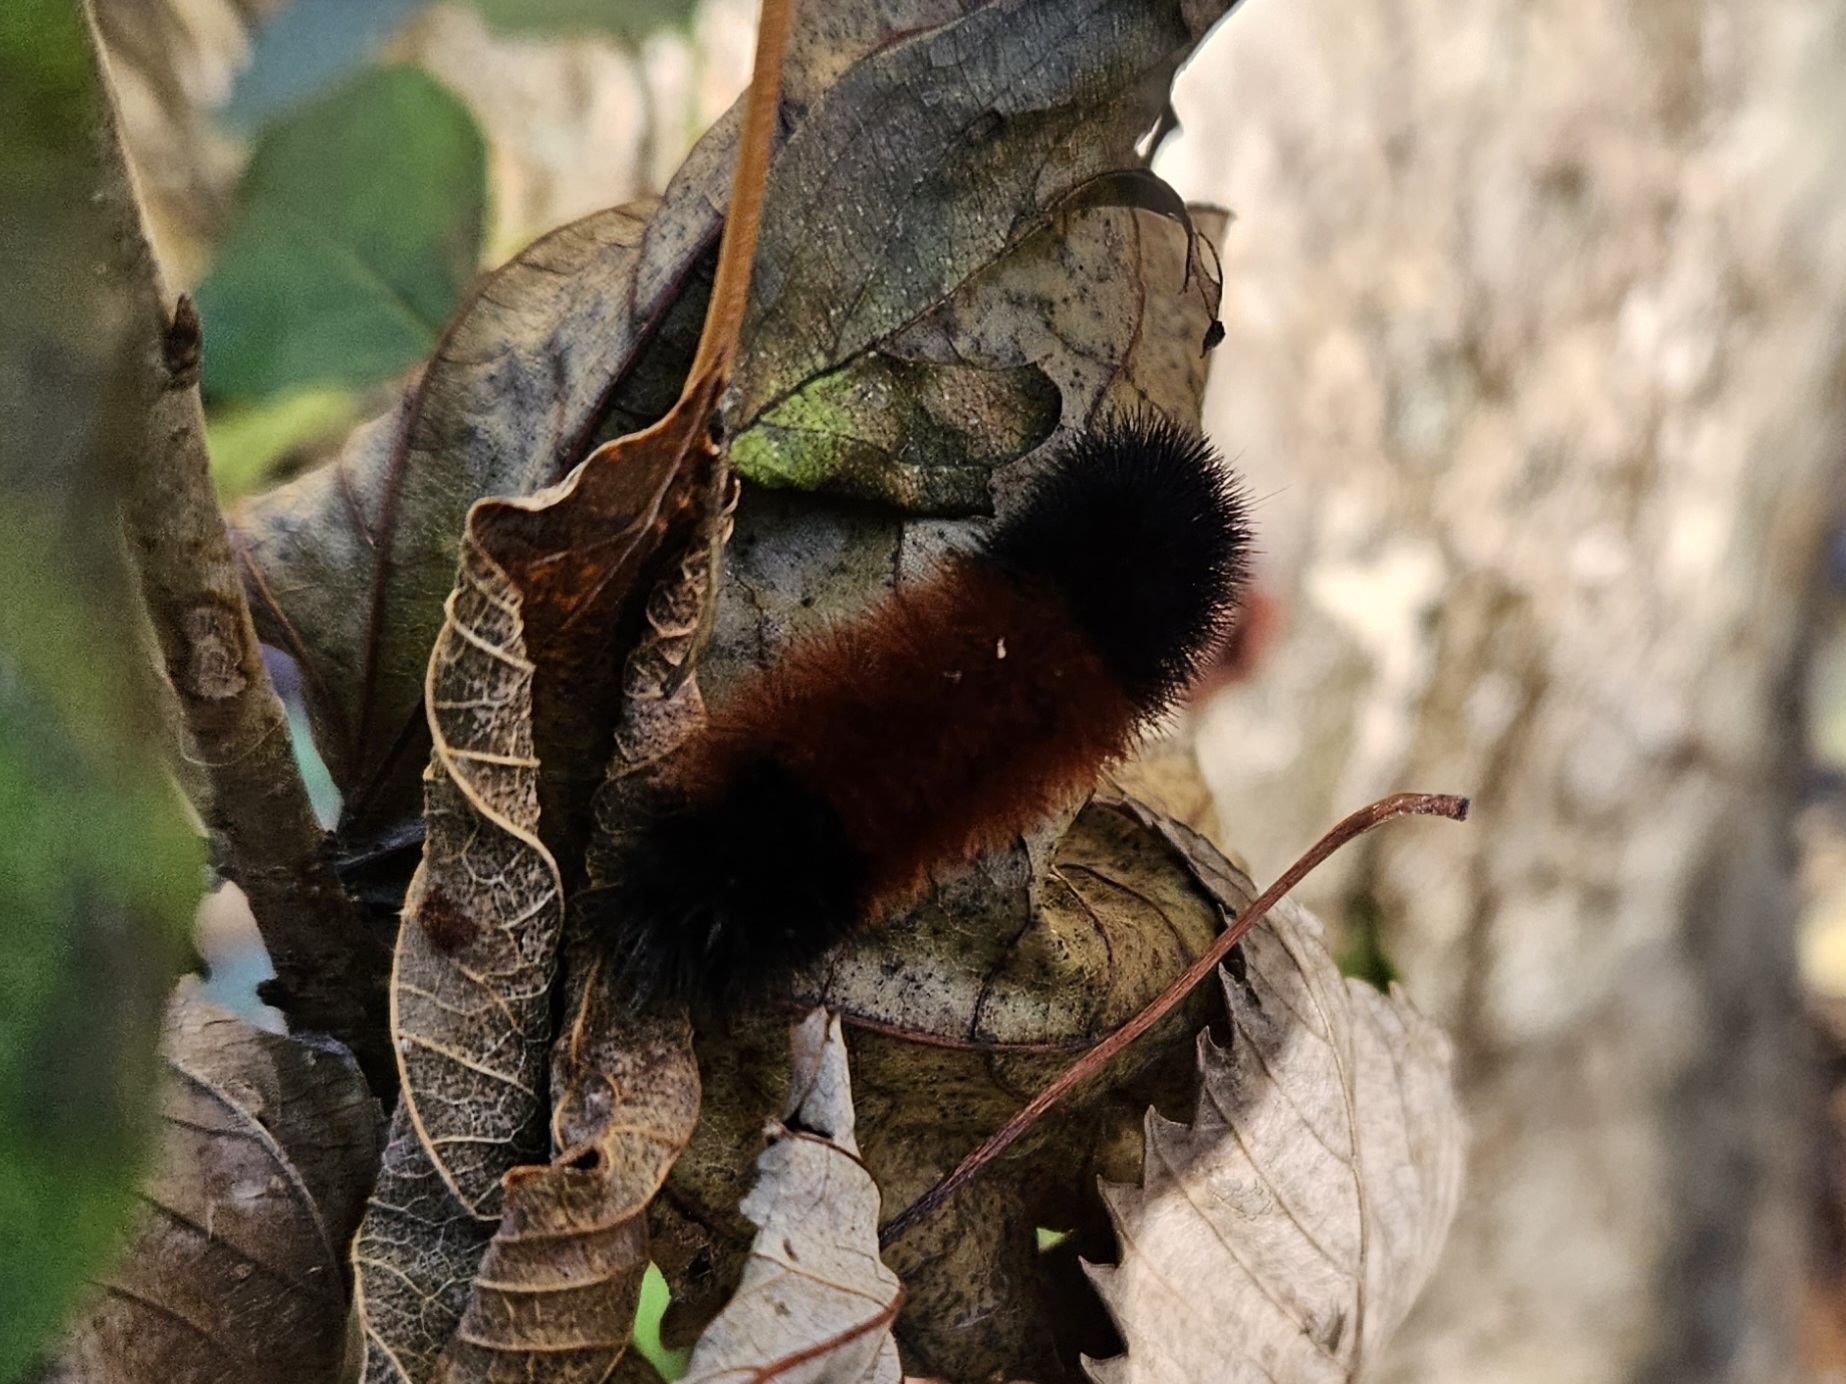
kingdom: Animalia
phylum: Arthropoda
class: Insecta
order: Lepidoptera
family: Erebidae
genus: Pyrrharctia
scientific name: Pyrrharctia isabella
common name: Isabella tiger moth
